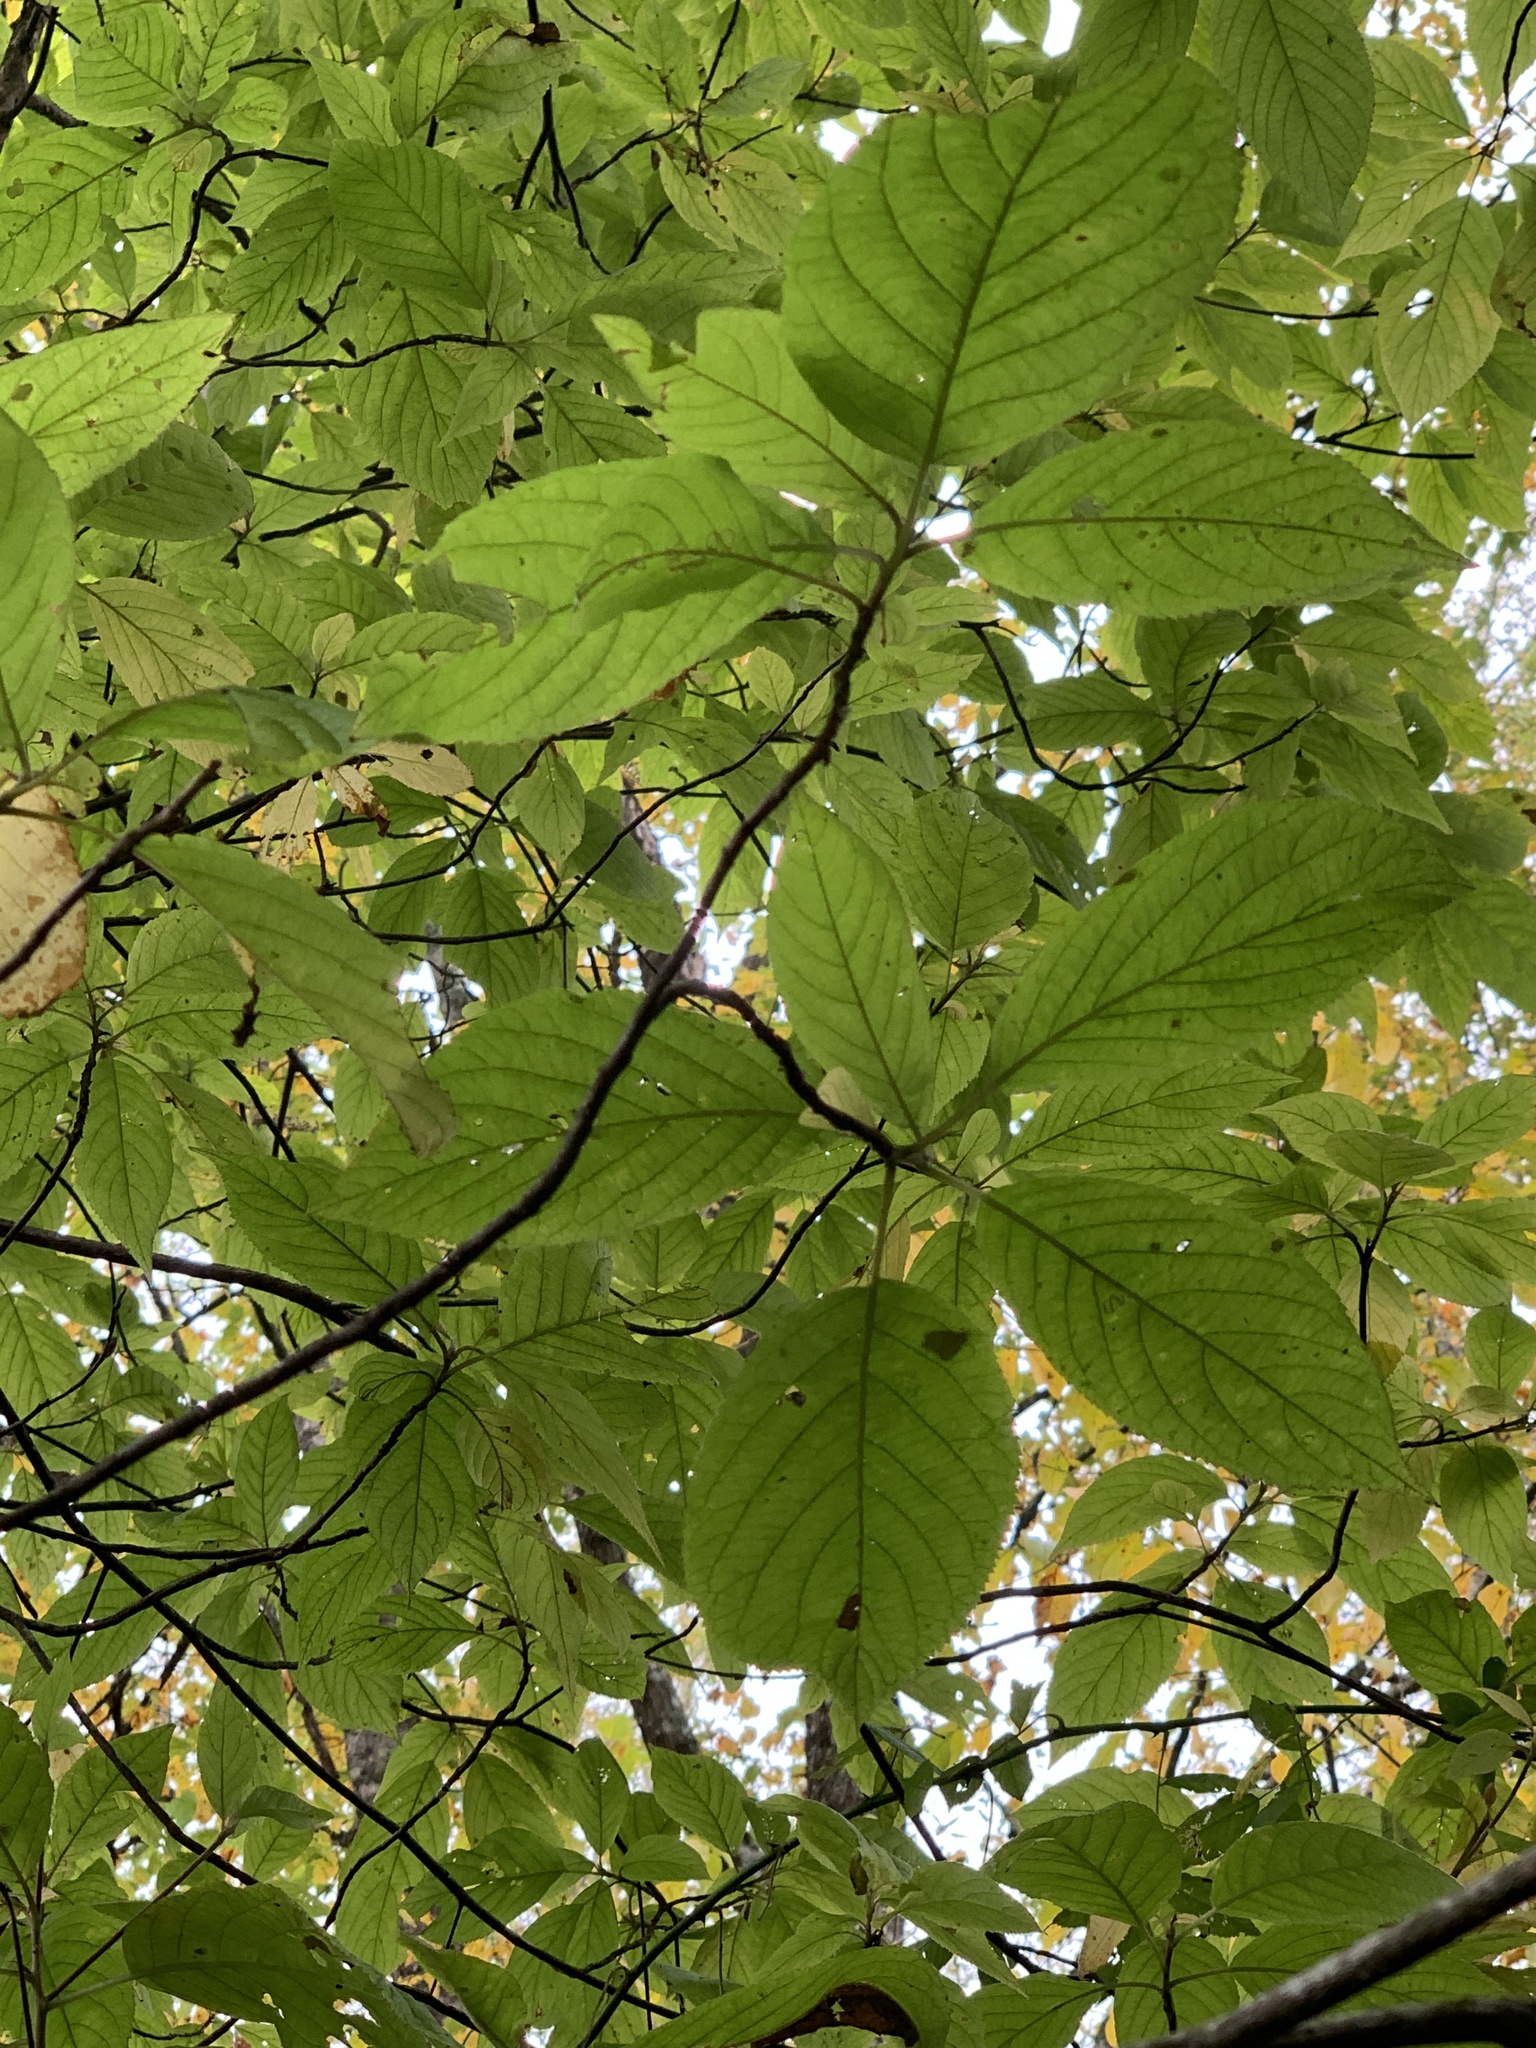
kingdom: Plantae
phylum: Tracheophyta
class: Magnoliopsida
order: Ericales
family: Clethraceae
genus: Clethra
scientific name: Clethra acuminata
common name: Mountain sweet pepperbush
